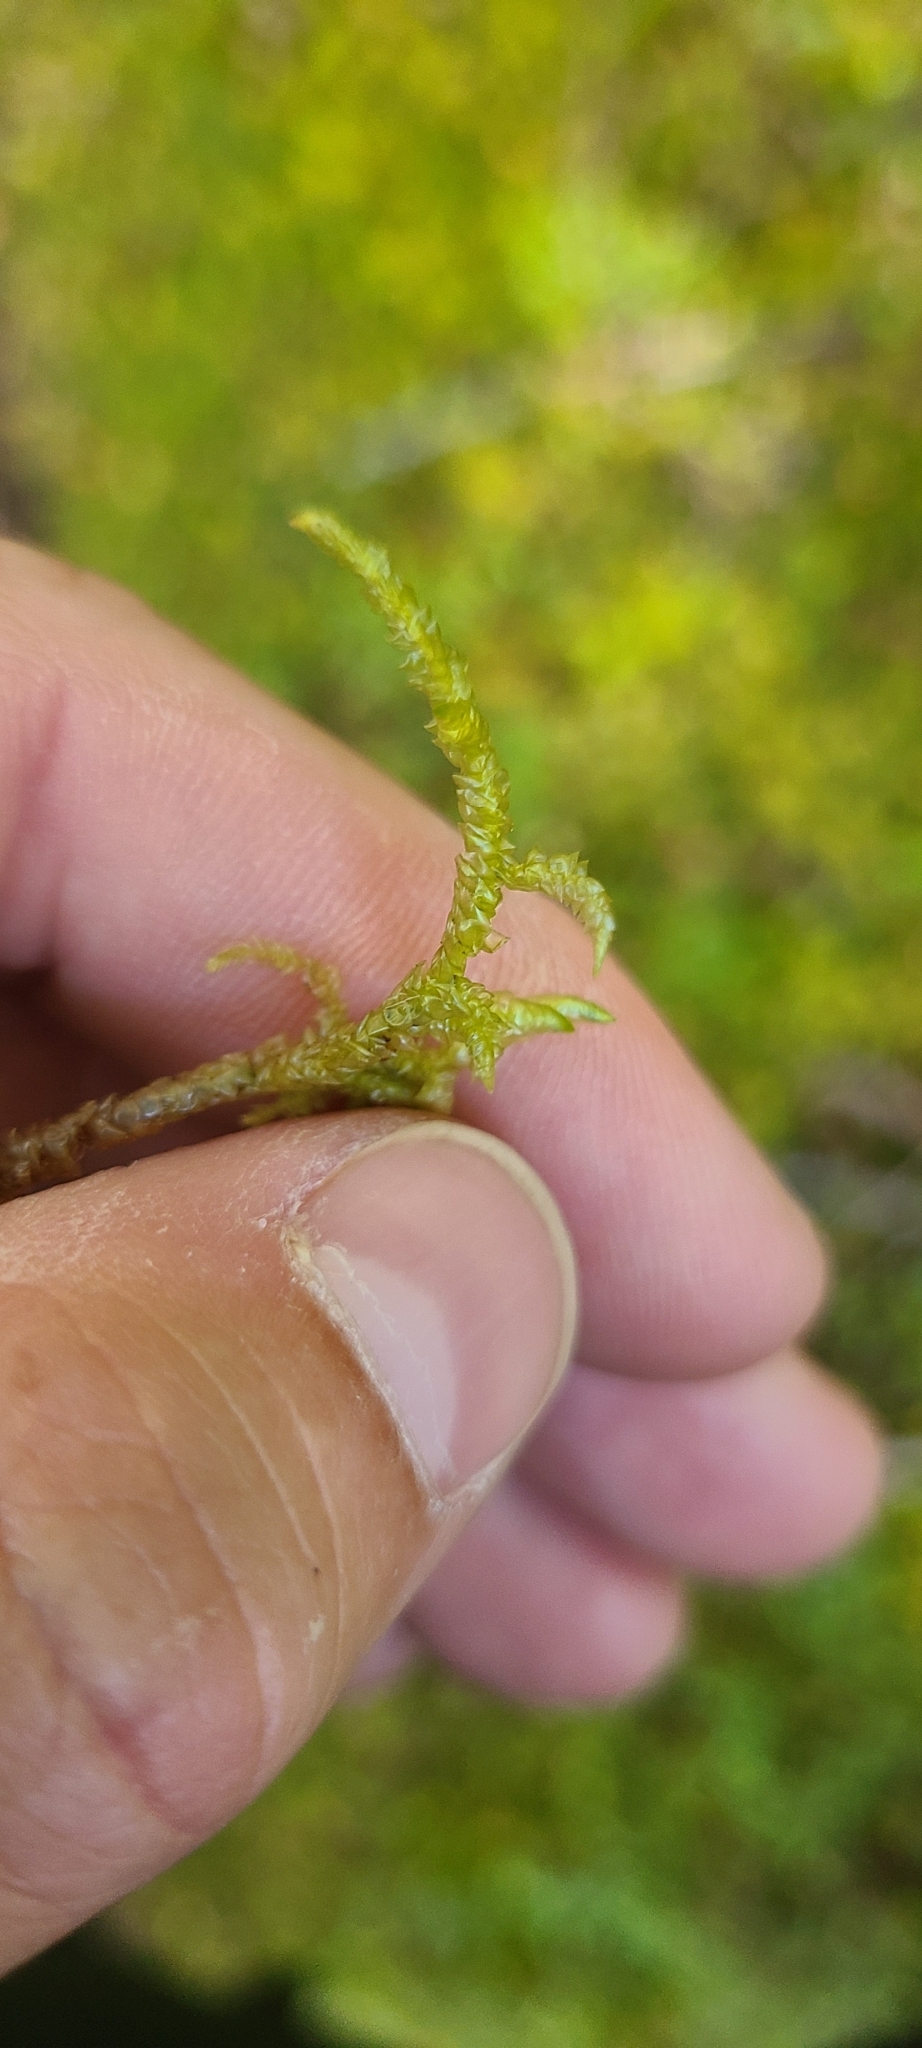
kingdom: Plantae
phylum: Bryophyta
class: Bryopsida
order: Hypnales
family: Acrocladiaceae
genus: Acrocladium
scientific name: Acrocladium chlamydophyllum
